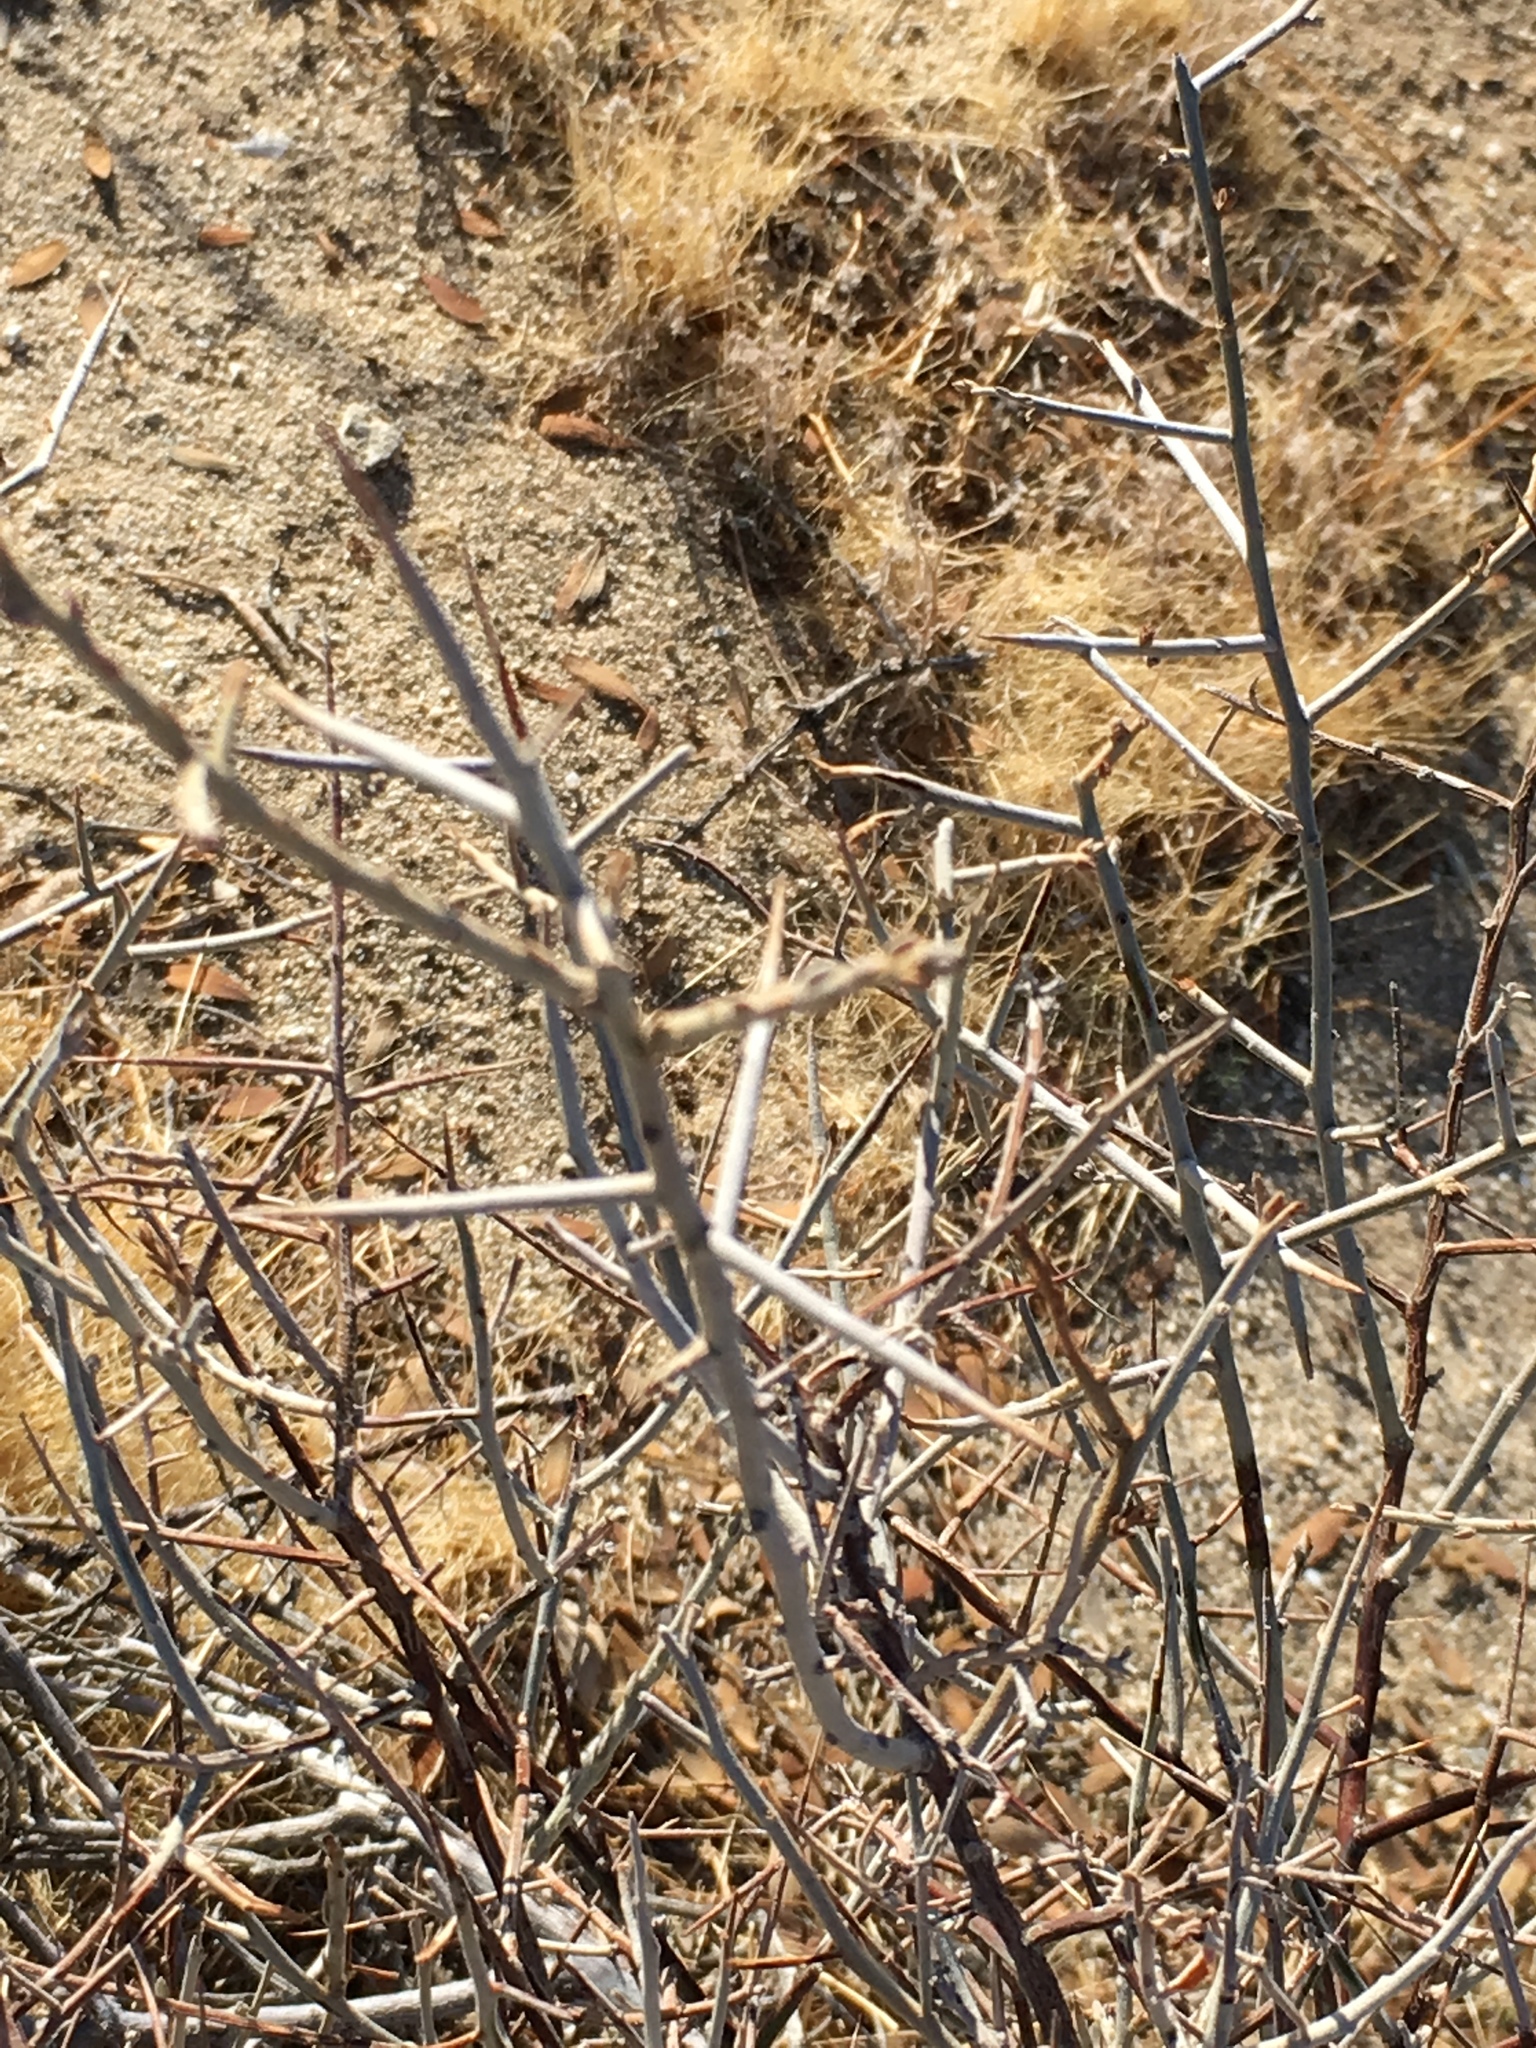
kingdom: Plantae
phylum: Tracheophyta
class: Magnoliopsida
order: Zygophyllales
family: Krameriaceae
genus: Krameria
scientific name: Krameria bicolor
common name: White ratany
